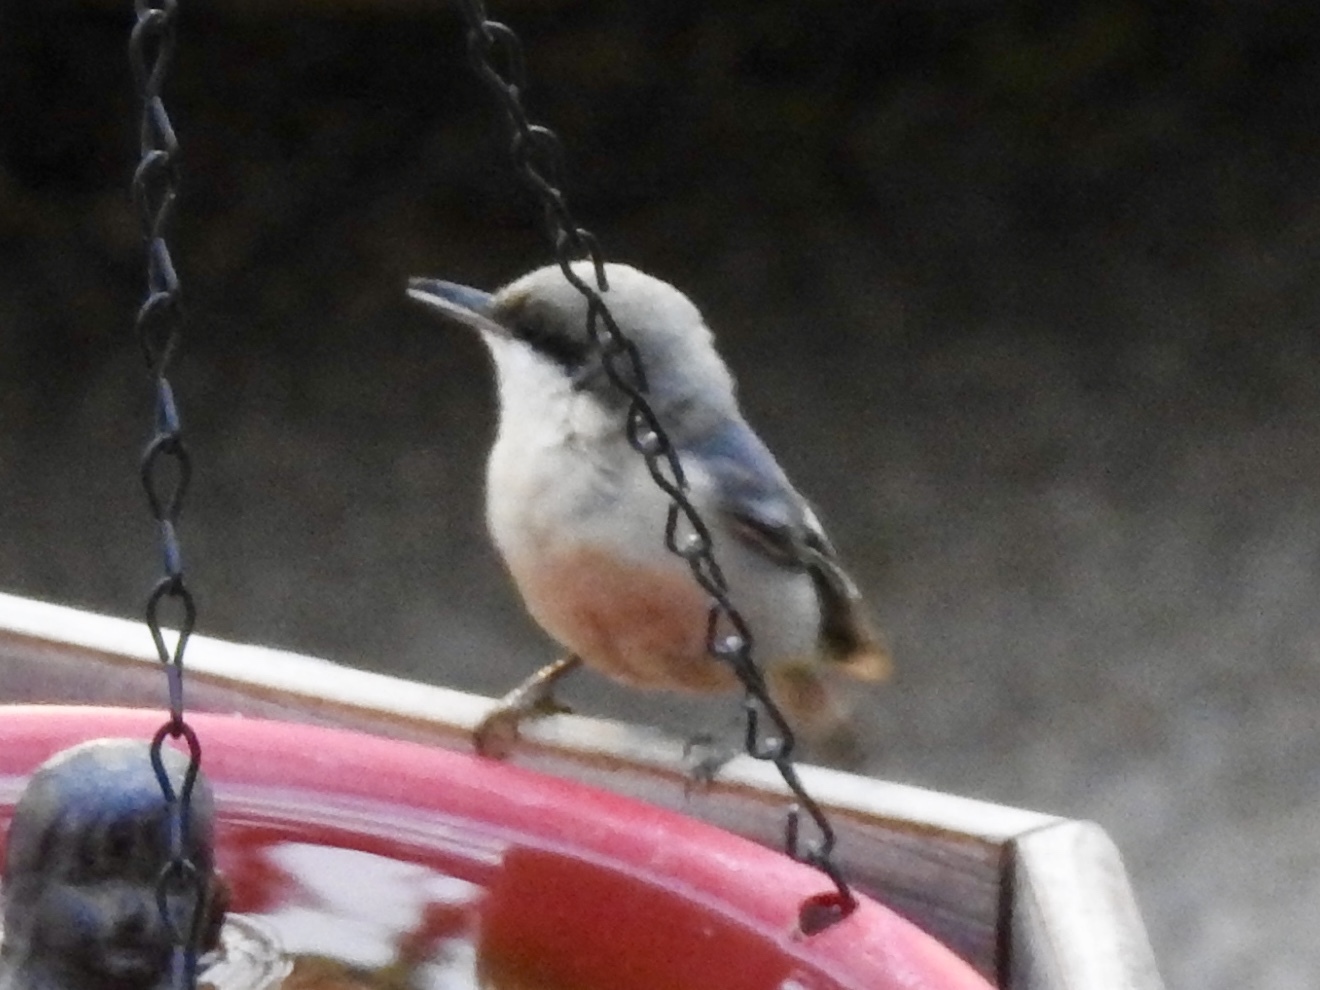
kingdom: Animalia
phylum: Chordata
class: Aves
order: Passeriformes
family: Sittidae
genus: Sitta
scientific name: Sitta pygmaea
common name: Pygmy nuthatch
